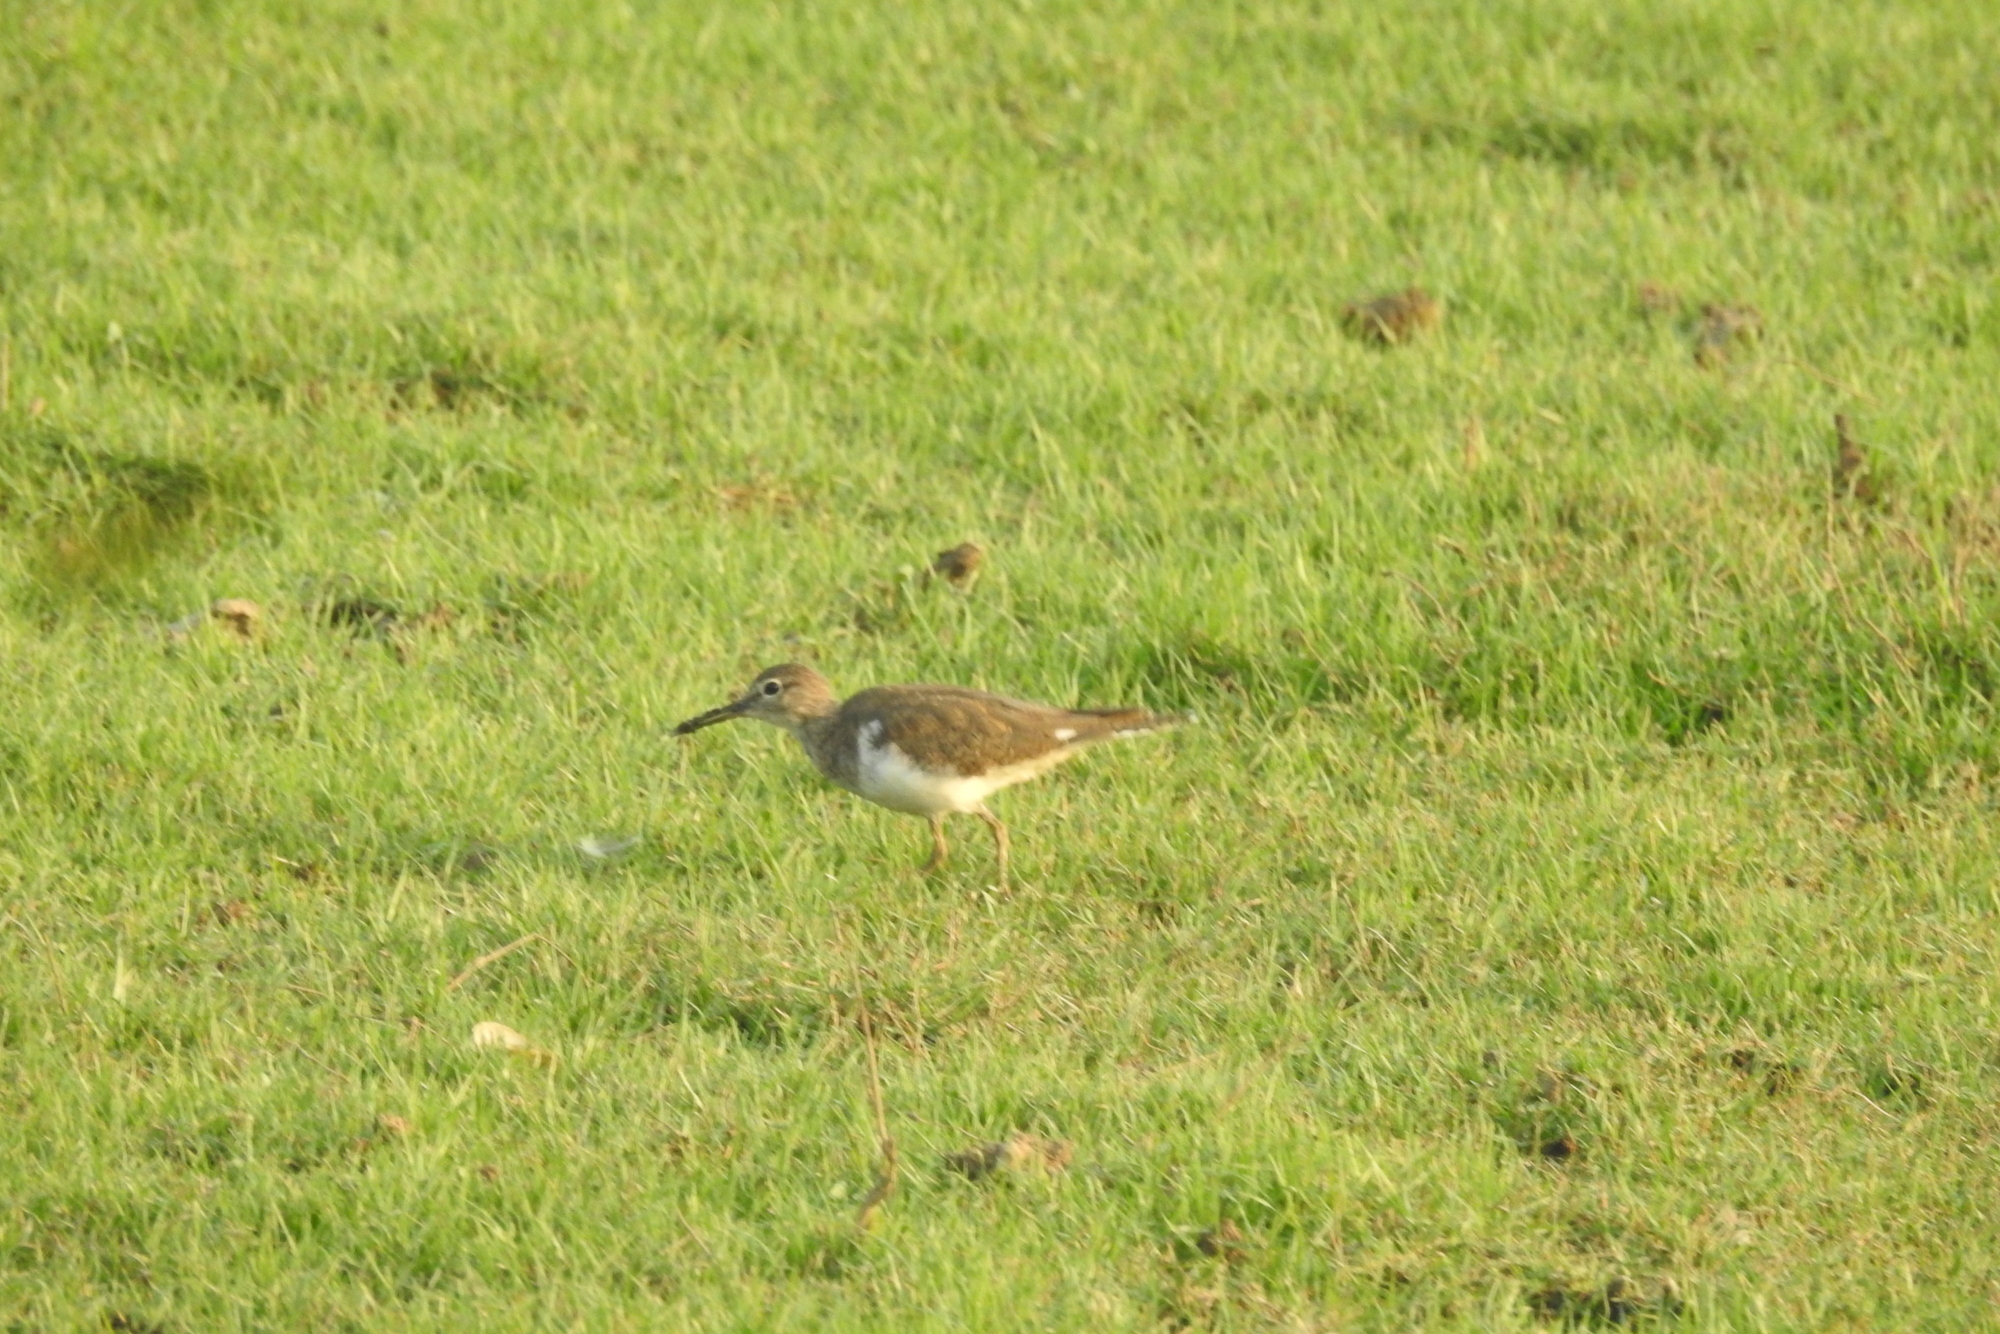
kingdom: Animalia
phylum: Chordata
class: Aves
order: Charadriiformes
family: Scolopacidae
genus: Actitis
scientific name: Actitis hypoleucos
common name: Common sandpiper
